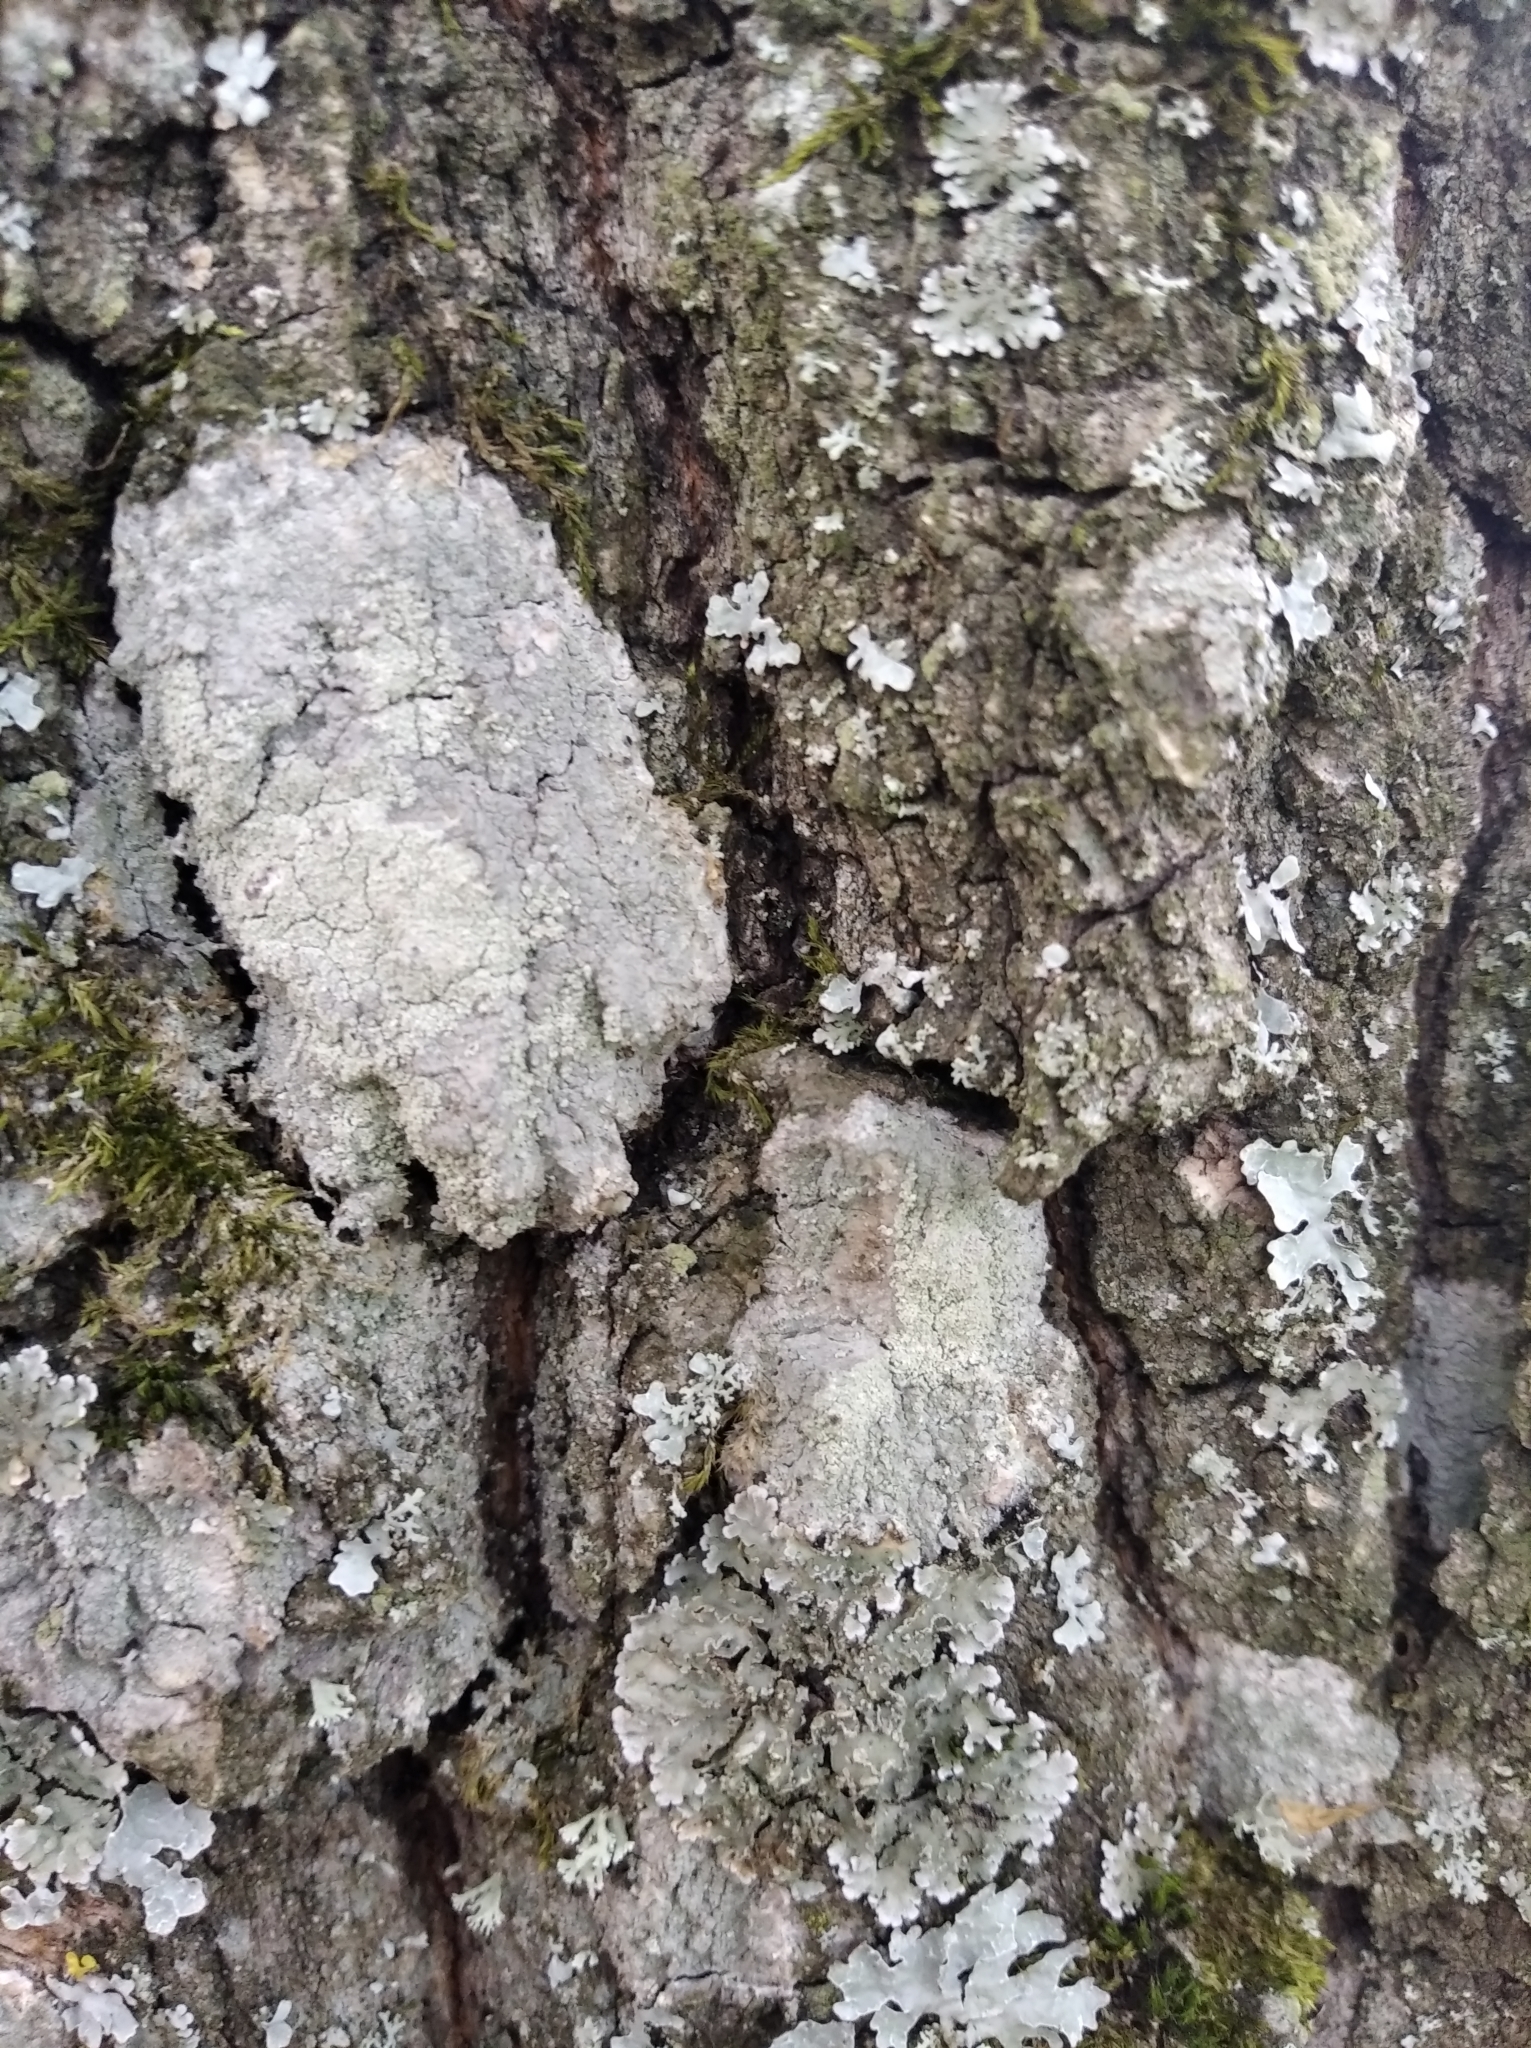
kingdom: Fungi
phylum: Ascomycota
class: Lecanoromycetes
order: Ostropales
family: Phlyctidaceae
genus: Phlyctis
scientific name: Phlyctis argena
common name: Whitewash lichen
